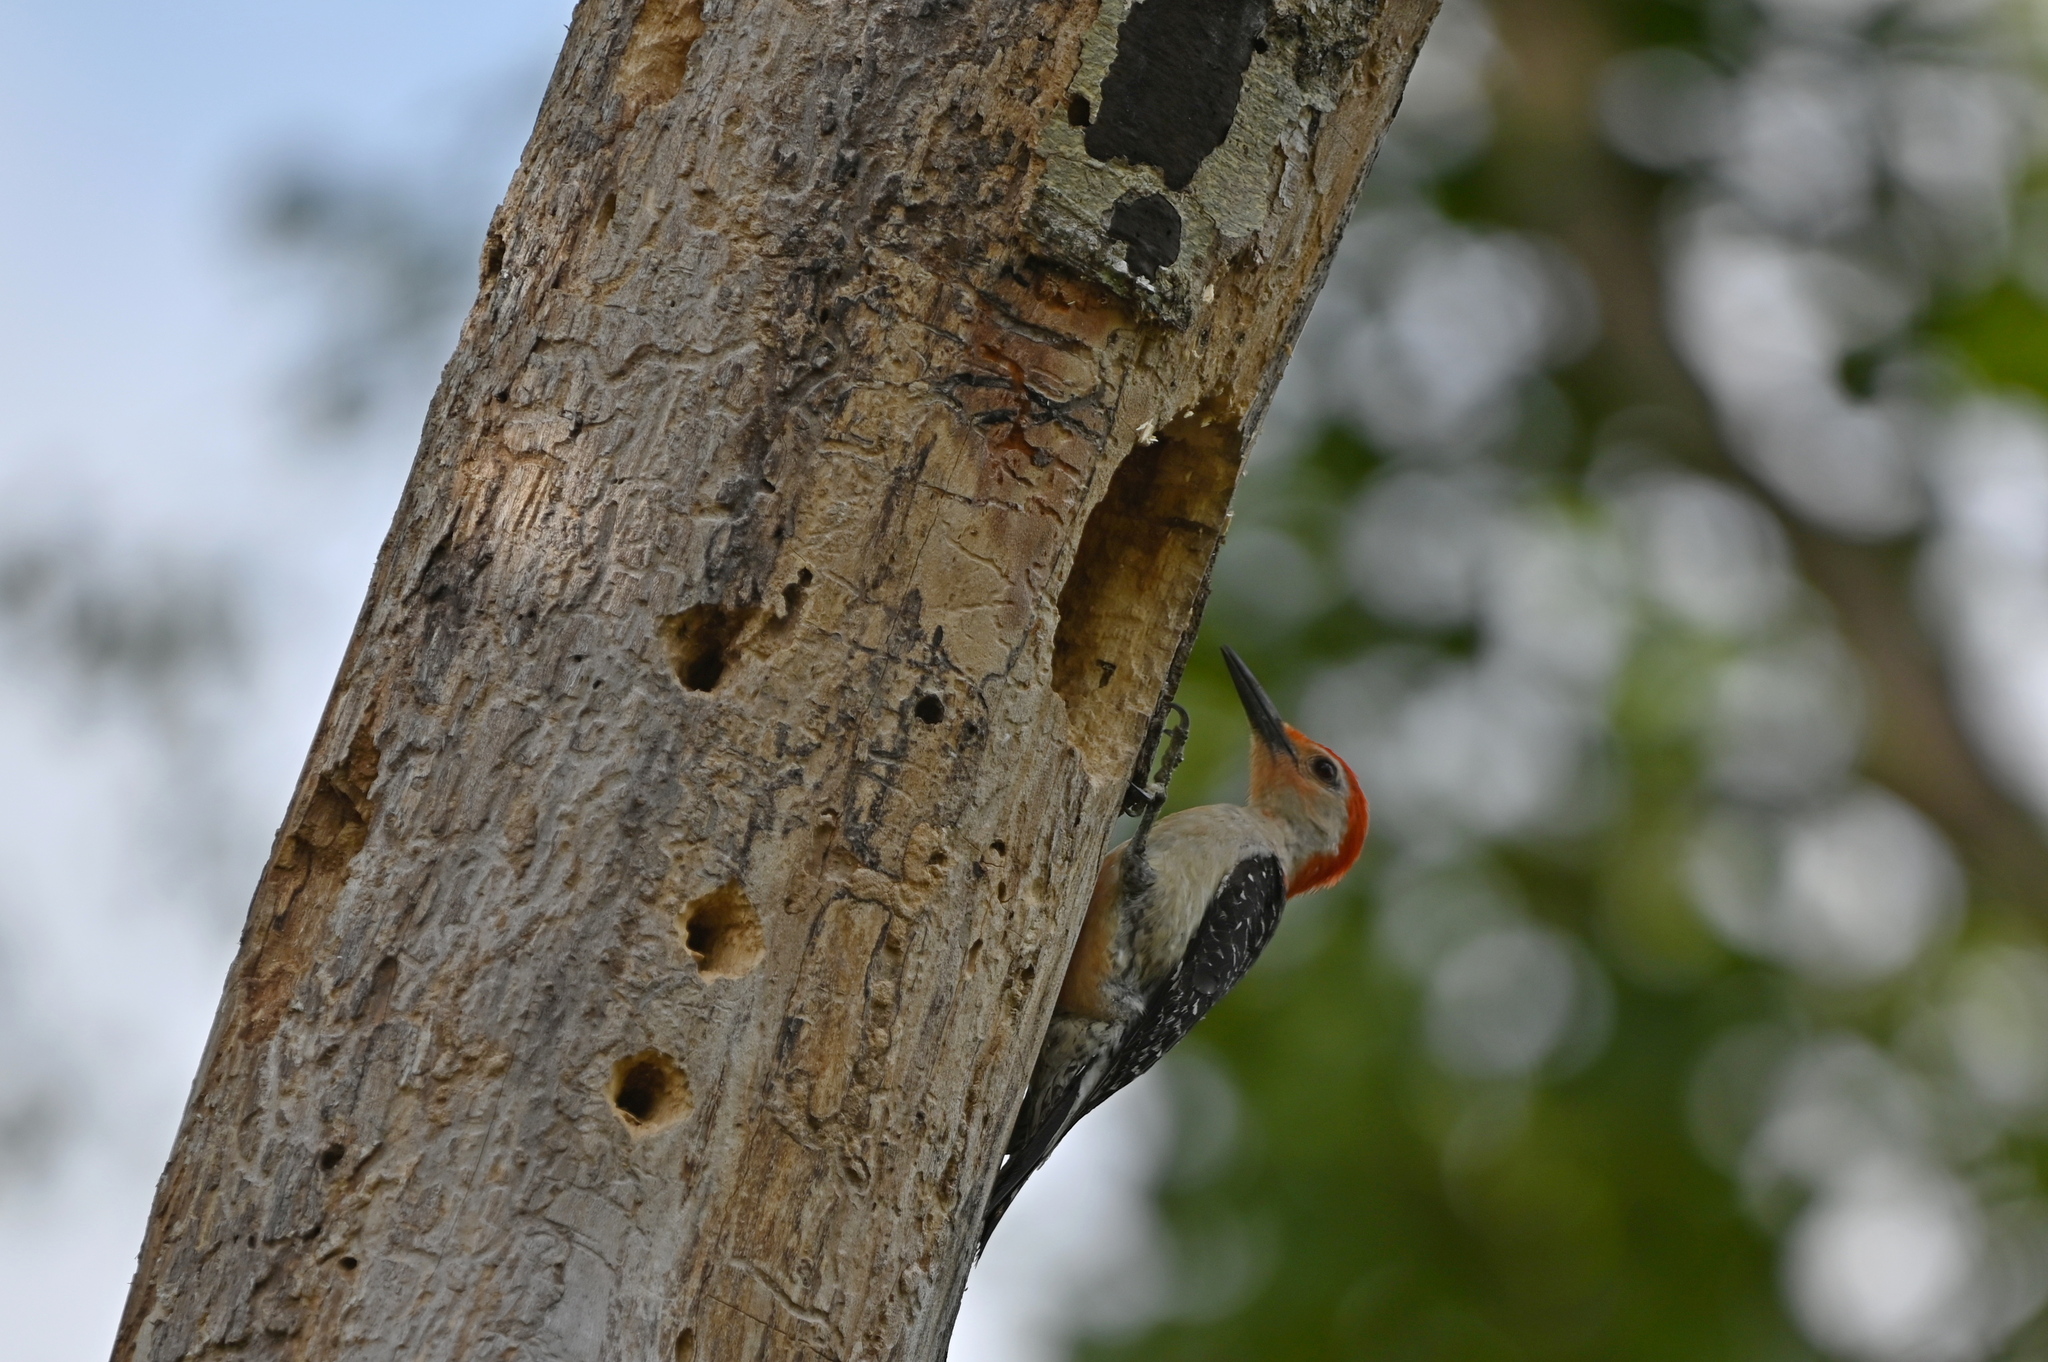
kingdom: Animalia
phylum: Chordata
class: Aves
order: Piciformes
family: Picidae
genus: Melanerpes
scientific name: Melanerpes carolinus
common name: Red-bellied woodpecker
